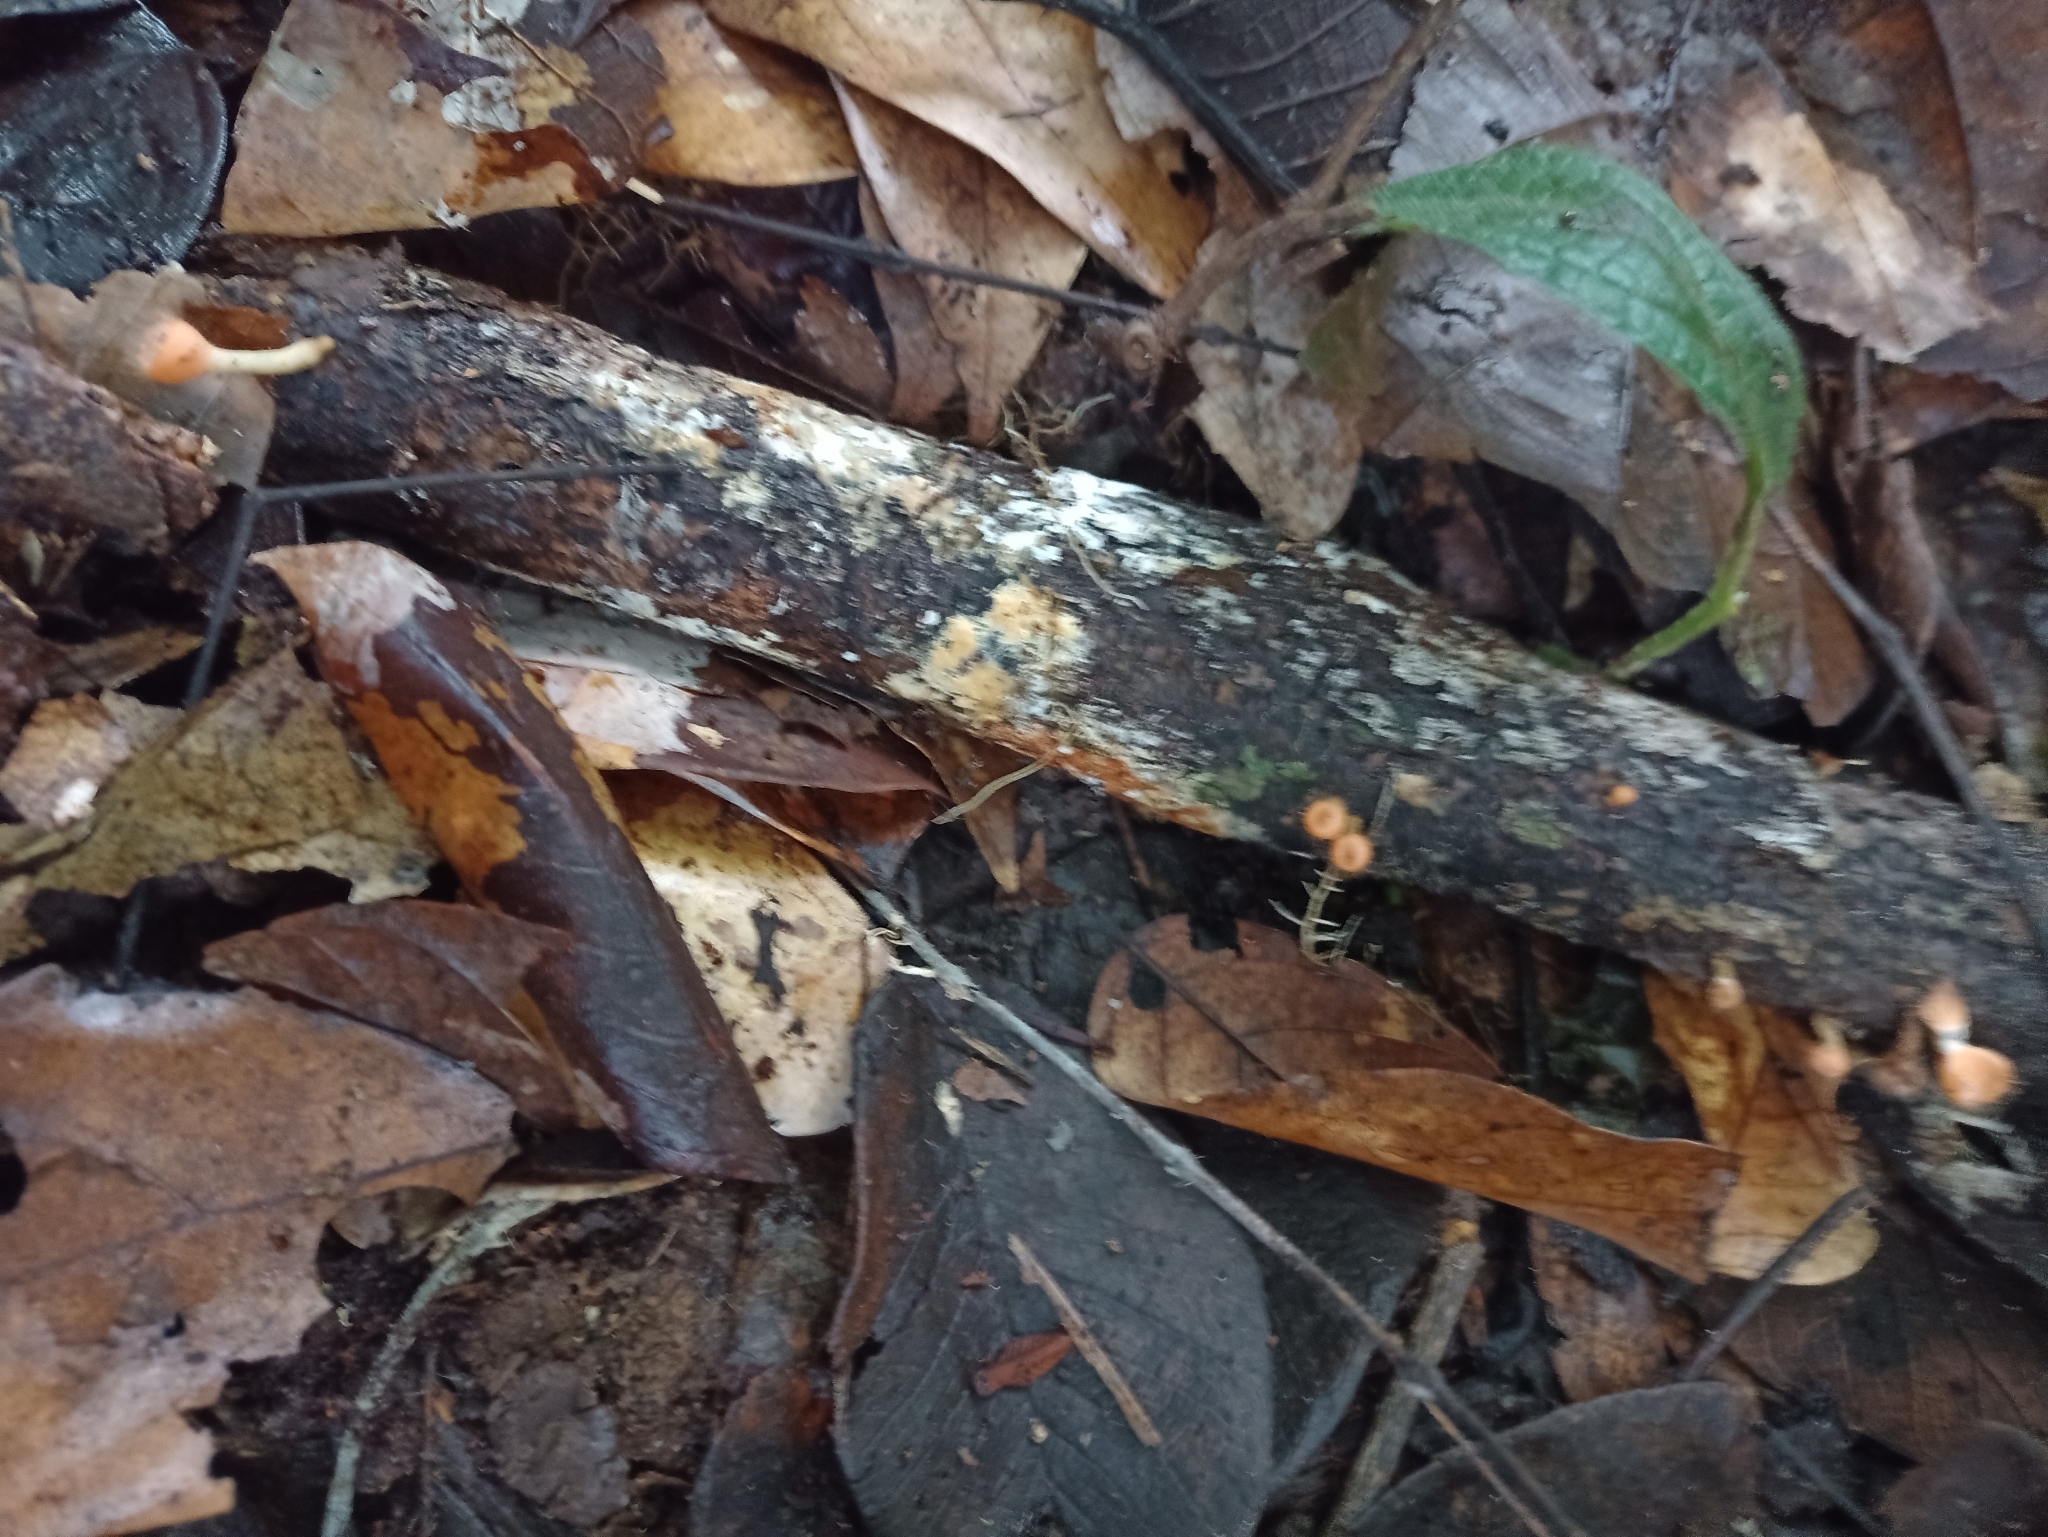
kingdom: Fungi
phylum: Ascomycota
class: Pezizomycetes
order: Pezizales
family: Sarcoscyphaceae
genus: Cookeina
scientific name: Cookeina tricholoma
